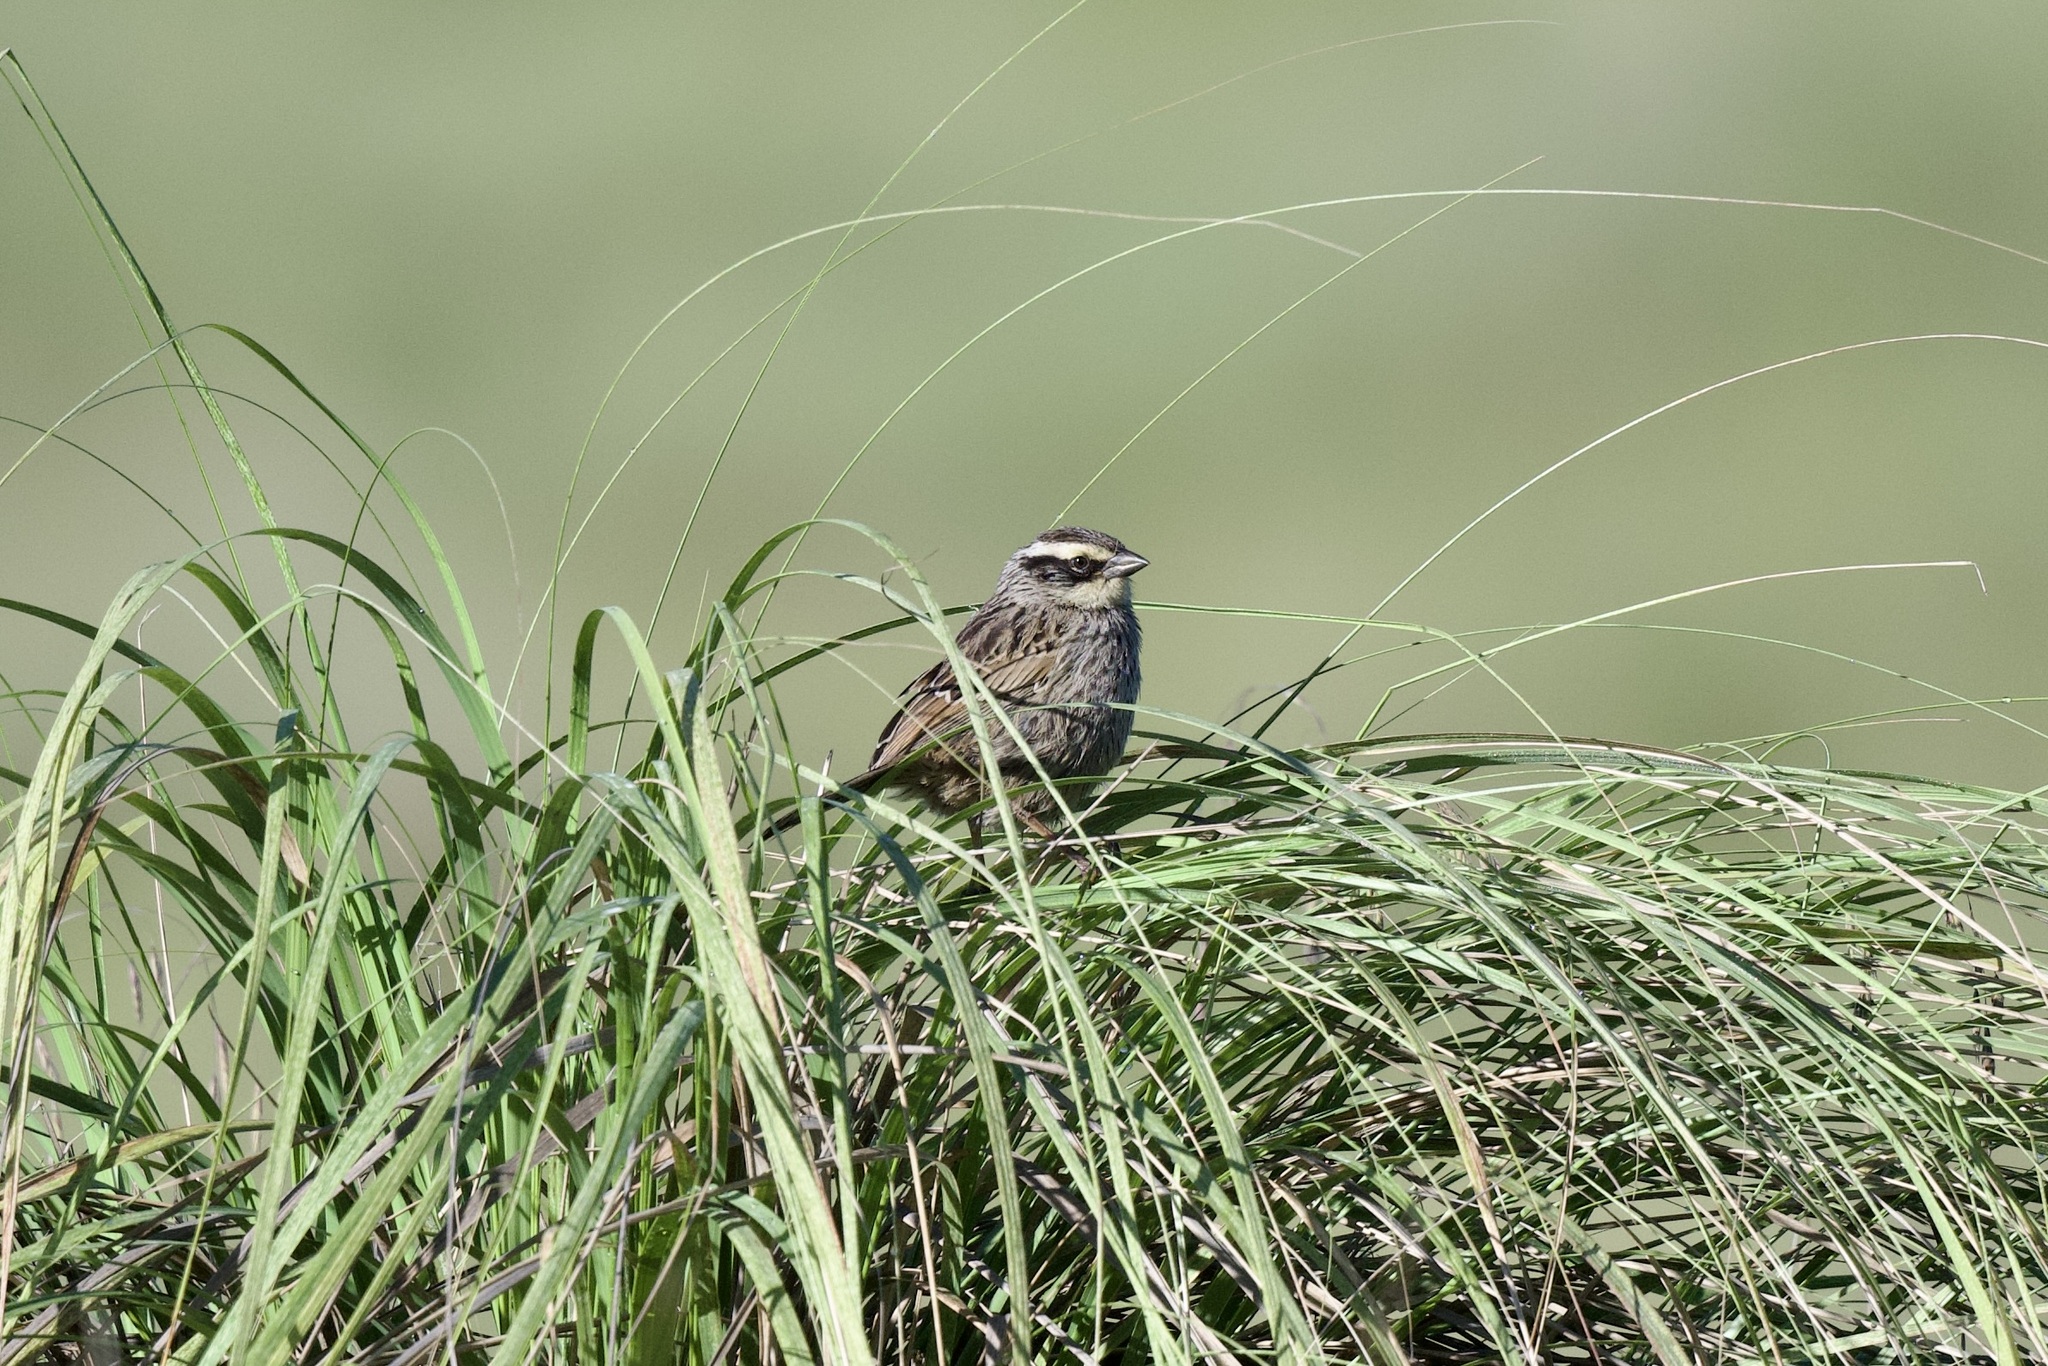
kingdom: Animalia
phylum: Chordata
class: Aves
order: Passeriformes
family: Passerellidae
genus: Oriturus
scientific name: Oriturus superciliosus
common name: Striped sparrow
